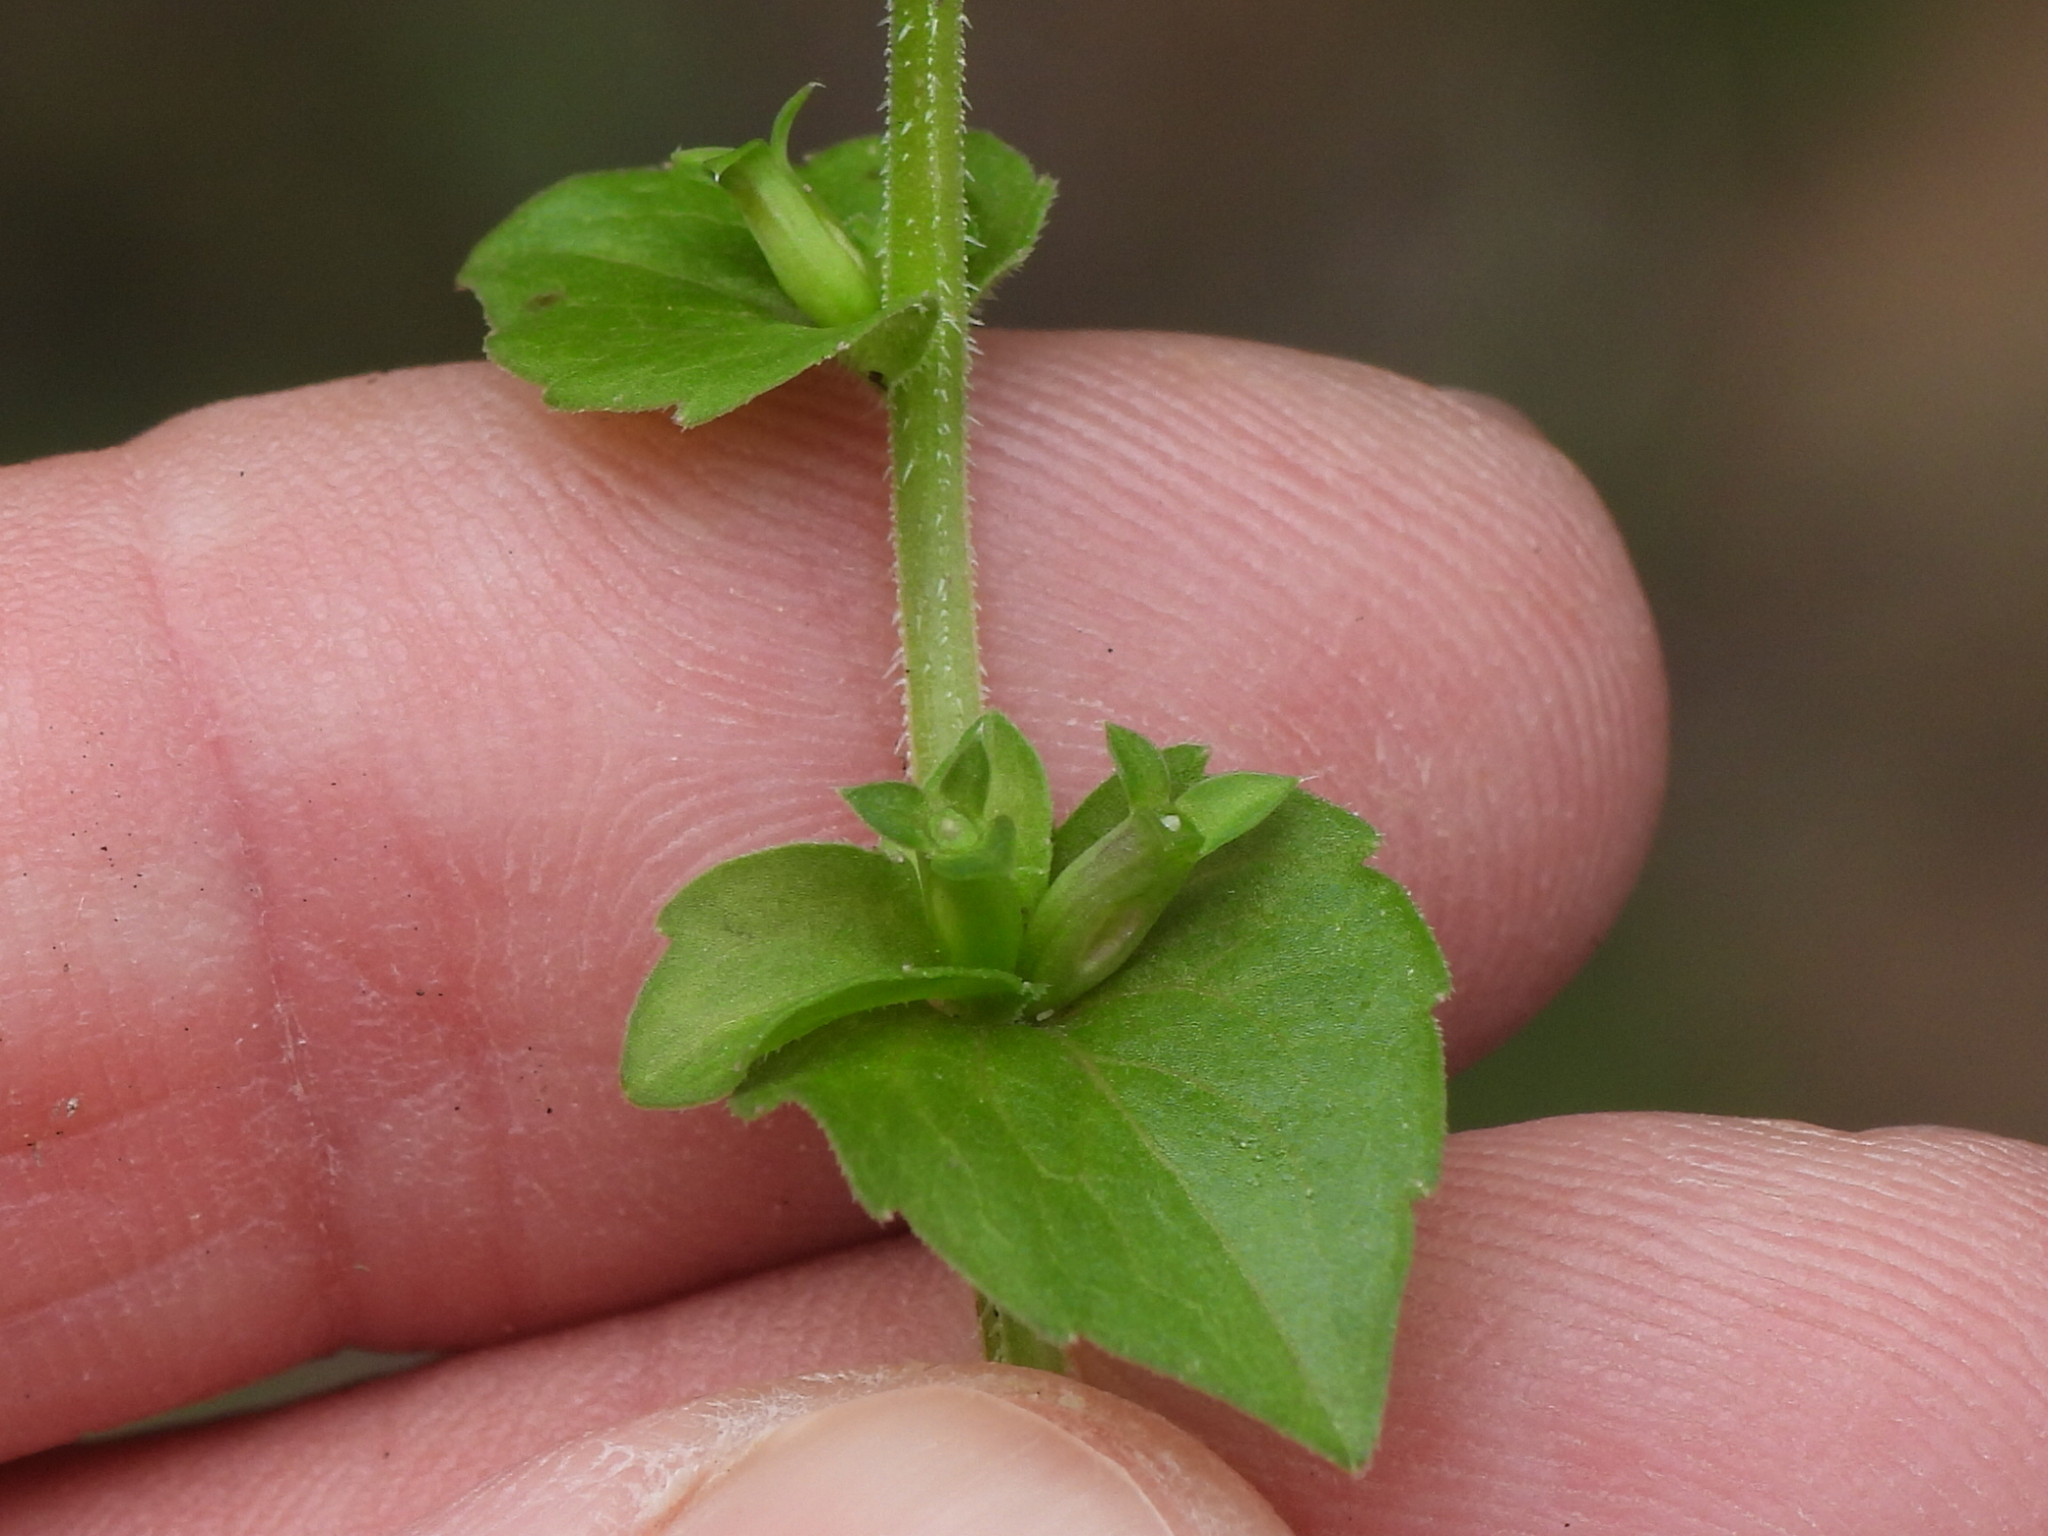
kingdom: Plantae
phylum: Tracheophyta
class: Magnoliopsida
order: Asterales
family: Campanulaceae
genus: Triodanis
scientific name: Triodanis perfoliata
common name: Clasping venus' looking-glass
